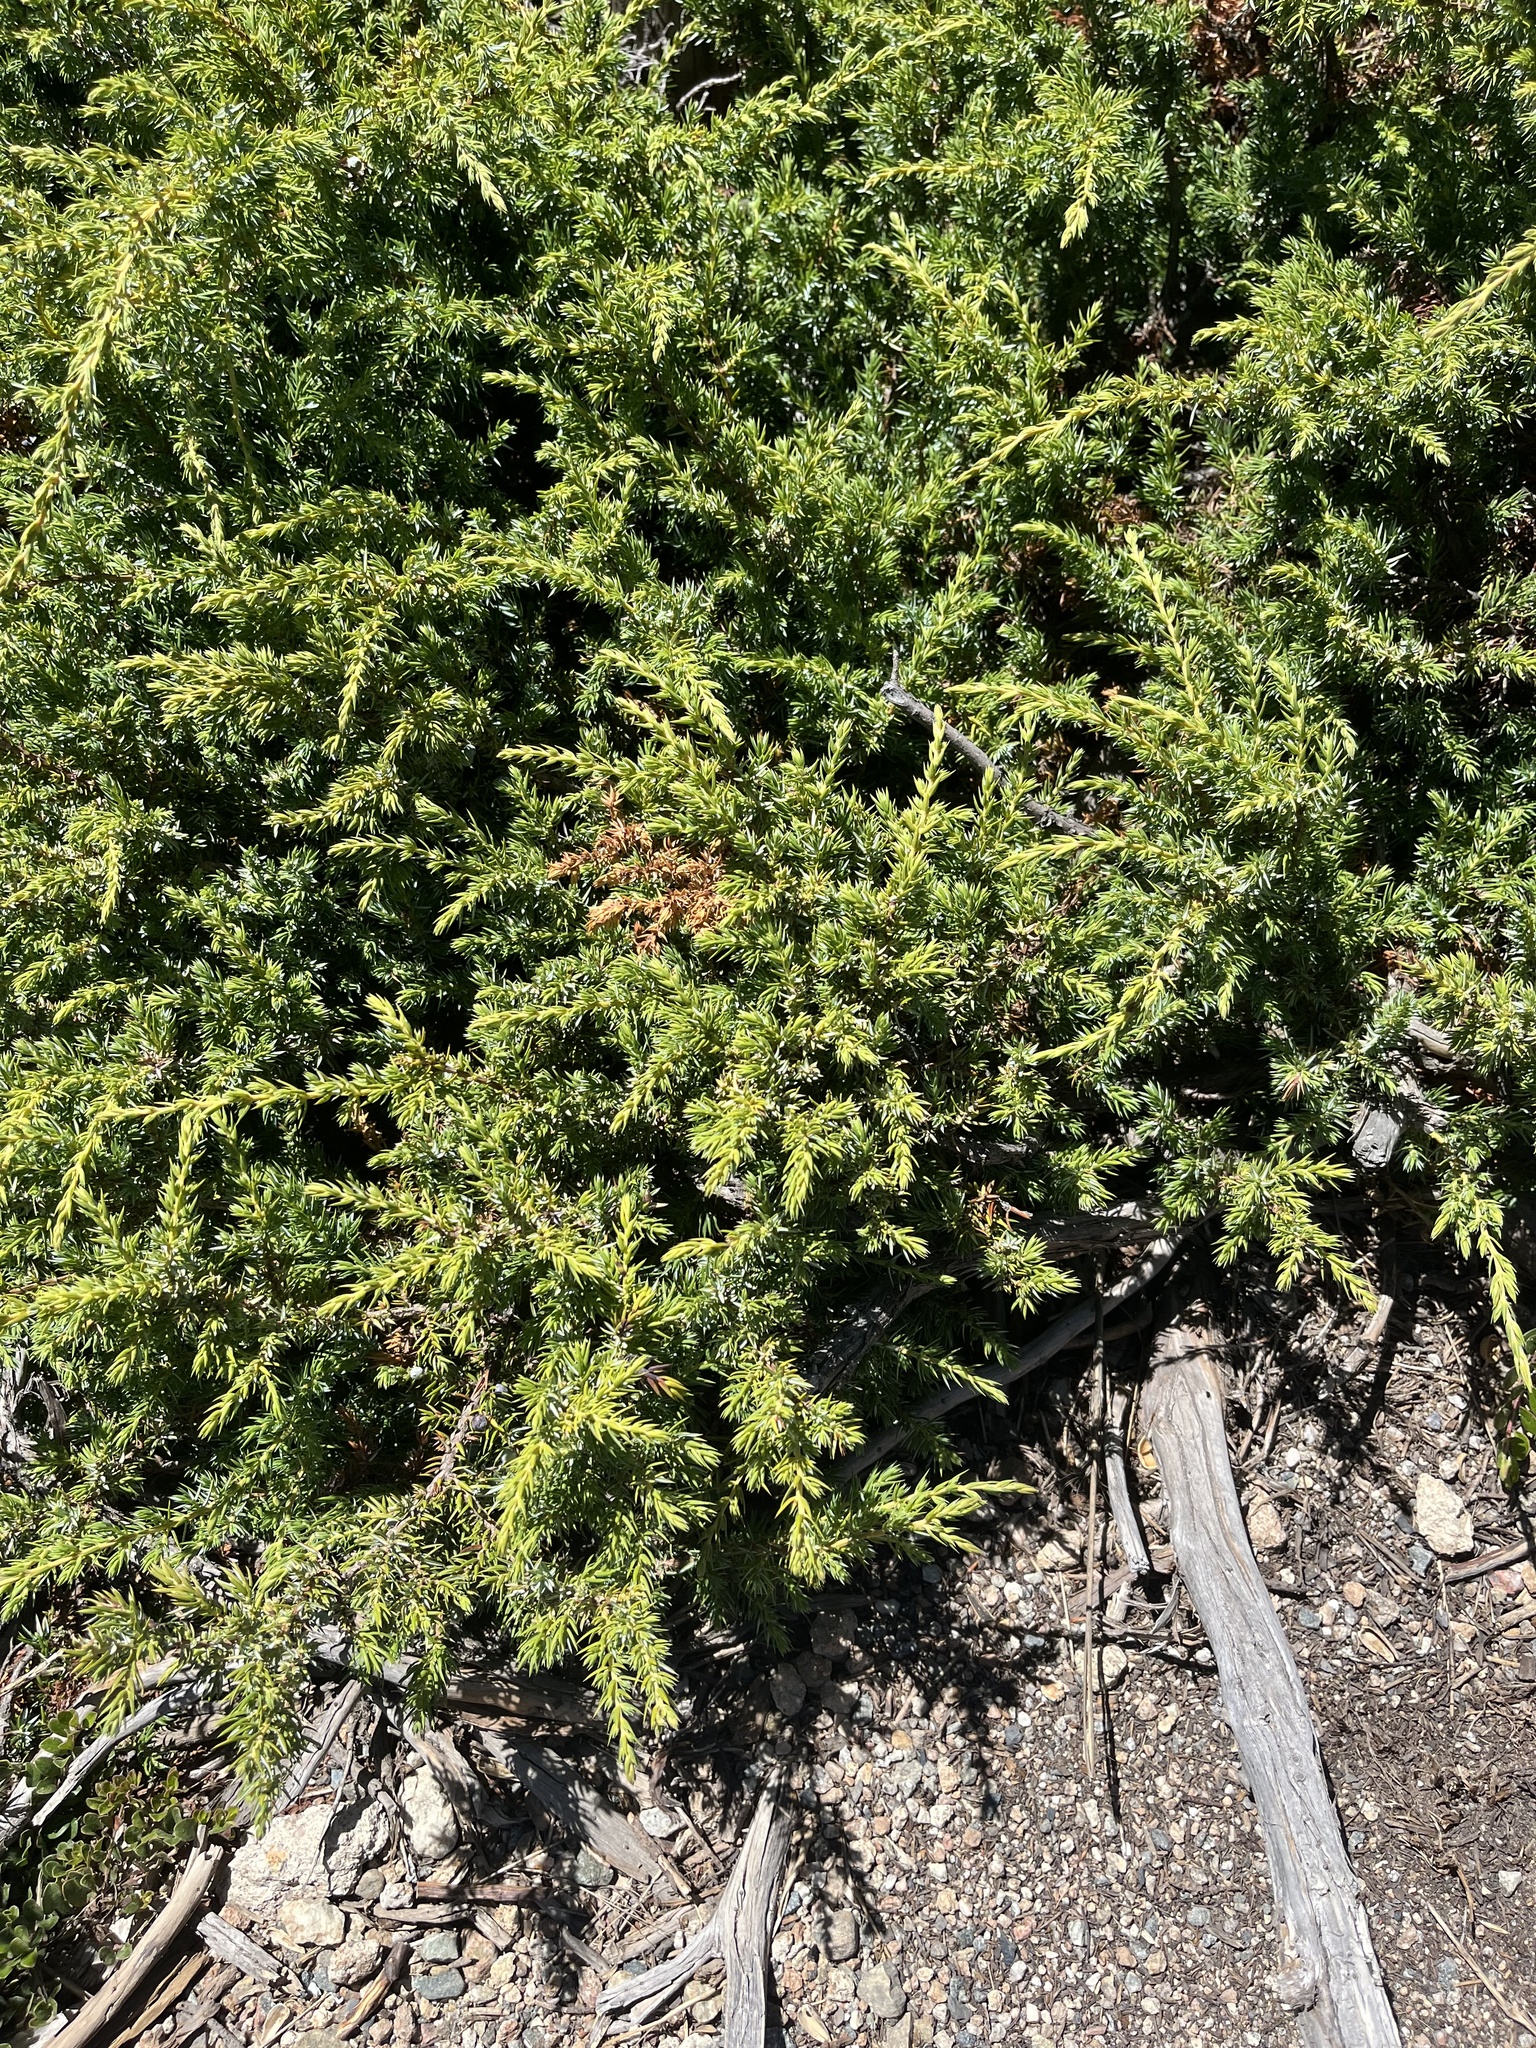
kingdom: Plantae
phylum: Tracheophyta
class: Pinopsida
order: Pinales
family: Cupressaceae
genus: Juniperus
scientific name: Juniperus communis
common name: Common juniper
